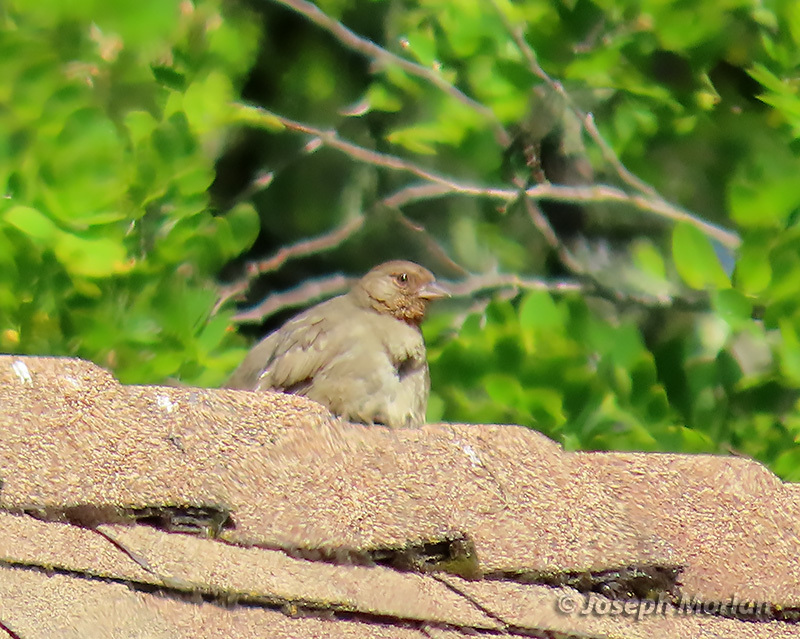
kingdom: Animalia
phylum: Chordata
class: Aves
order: Passeriformes
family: Passerellidae
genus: Melozone
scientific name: Melozone crissalis
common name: California towhee
